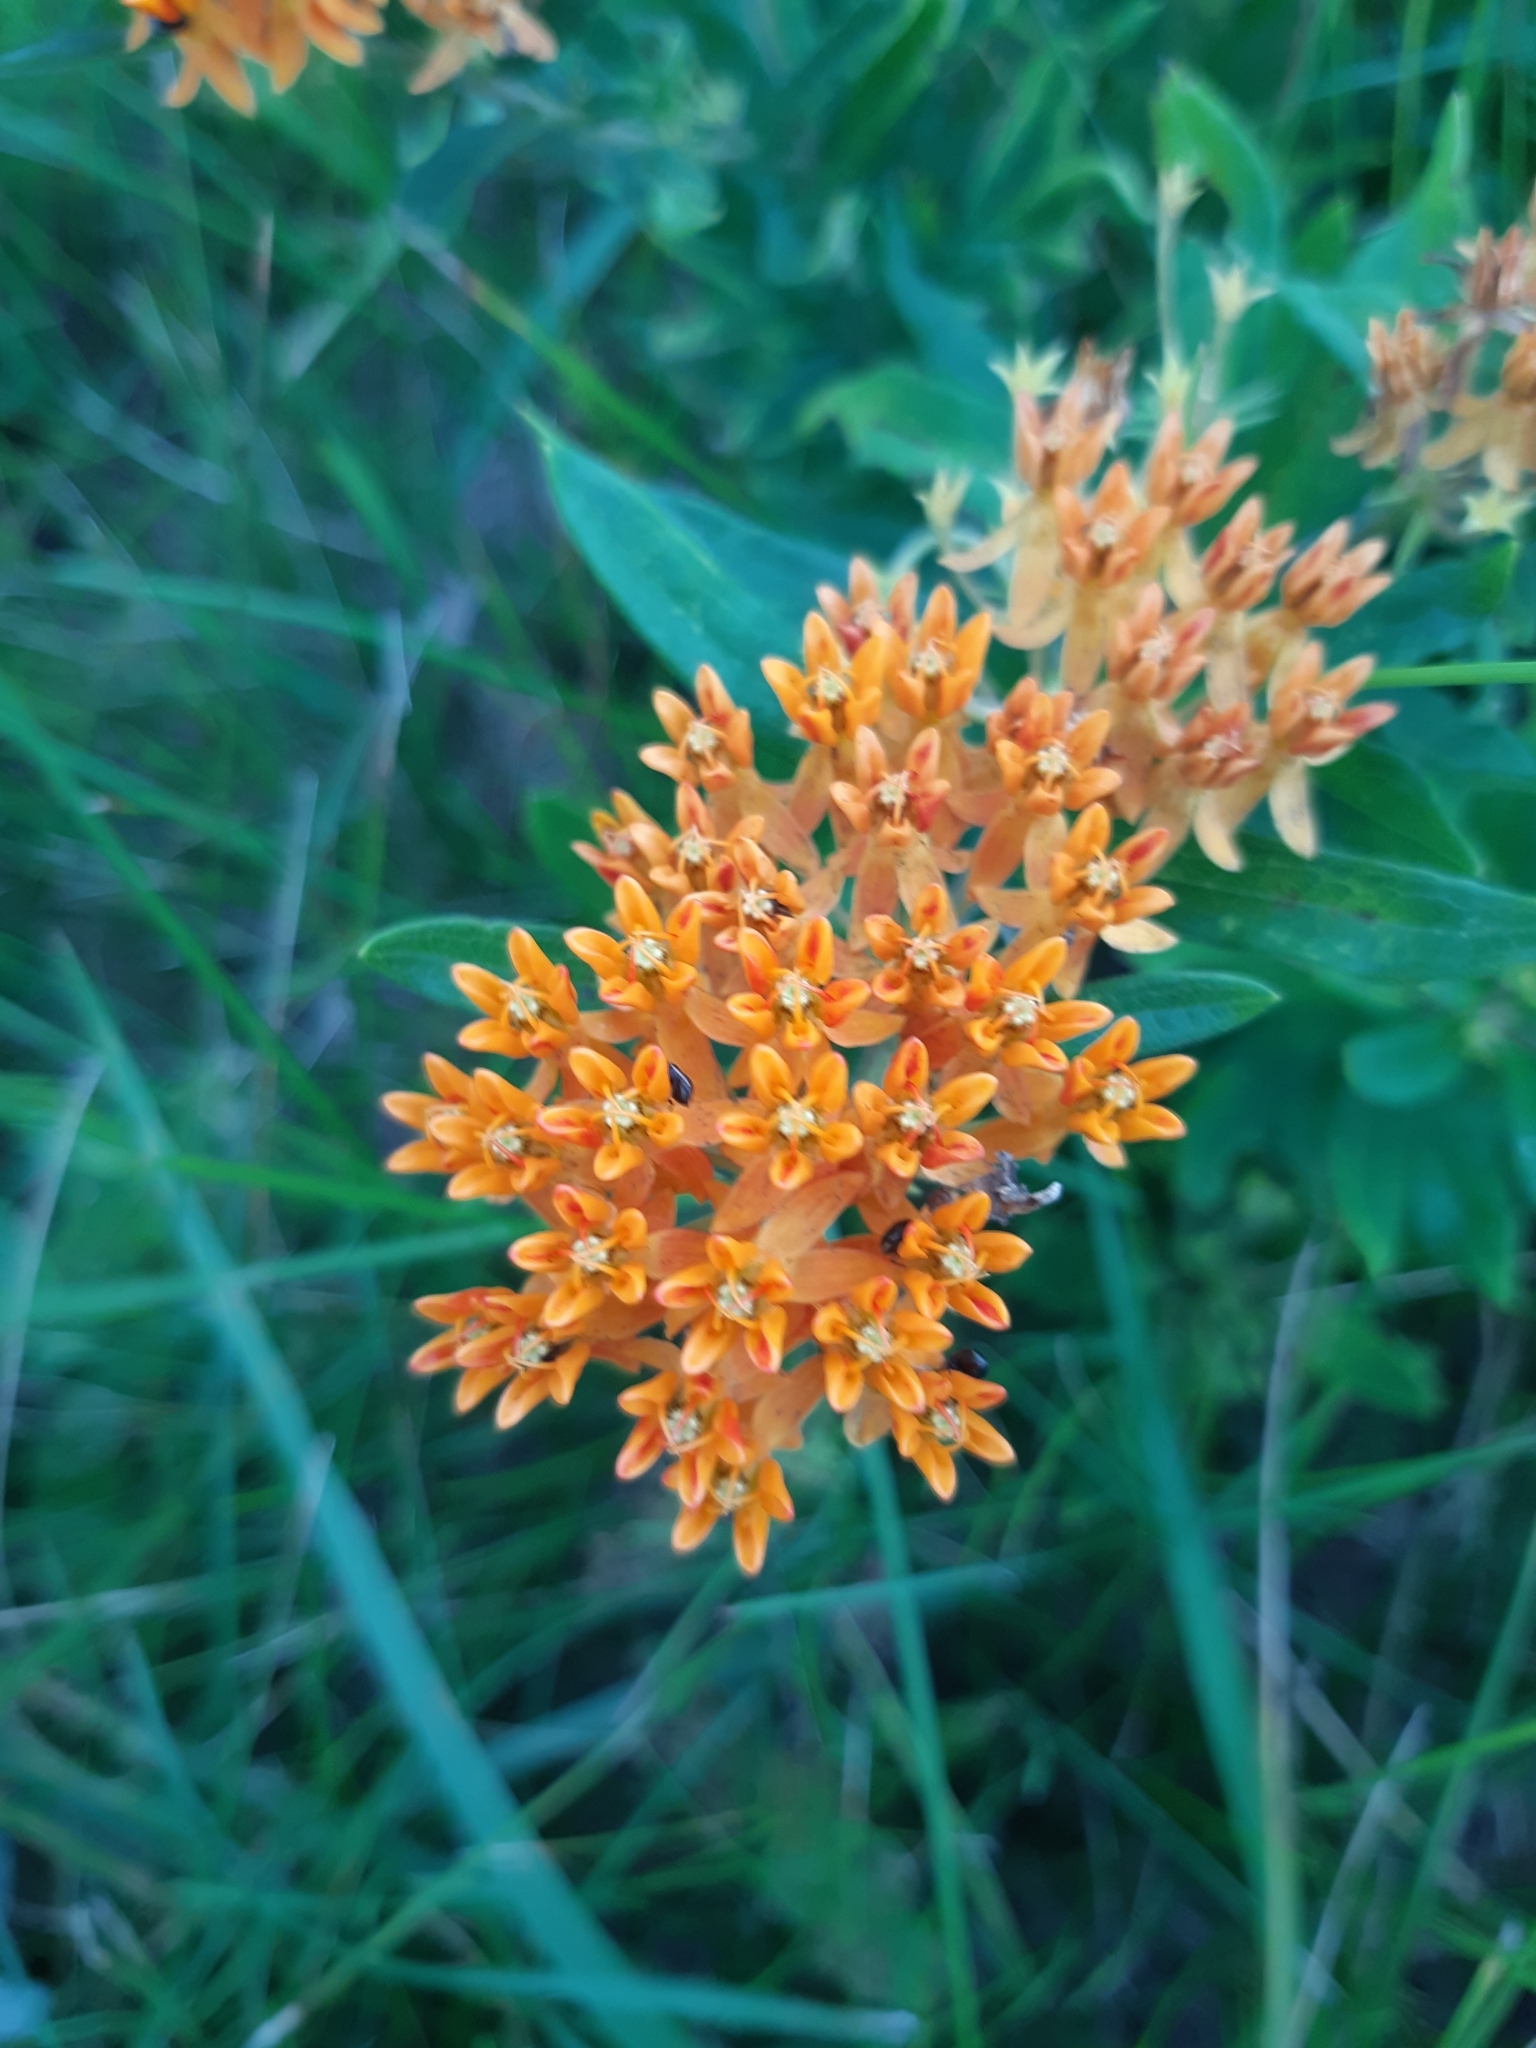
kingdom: Plantae
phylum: Tracheophyta
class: Magnoliopsida
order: Gentianales
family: Apocynaceae
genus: Asclepias
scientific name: Asclepias tuberosa
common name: Butterfly milkweed
